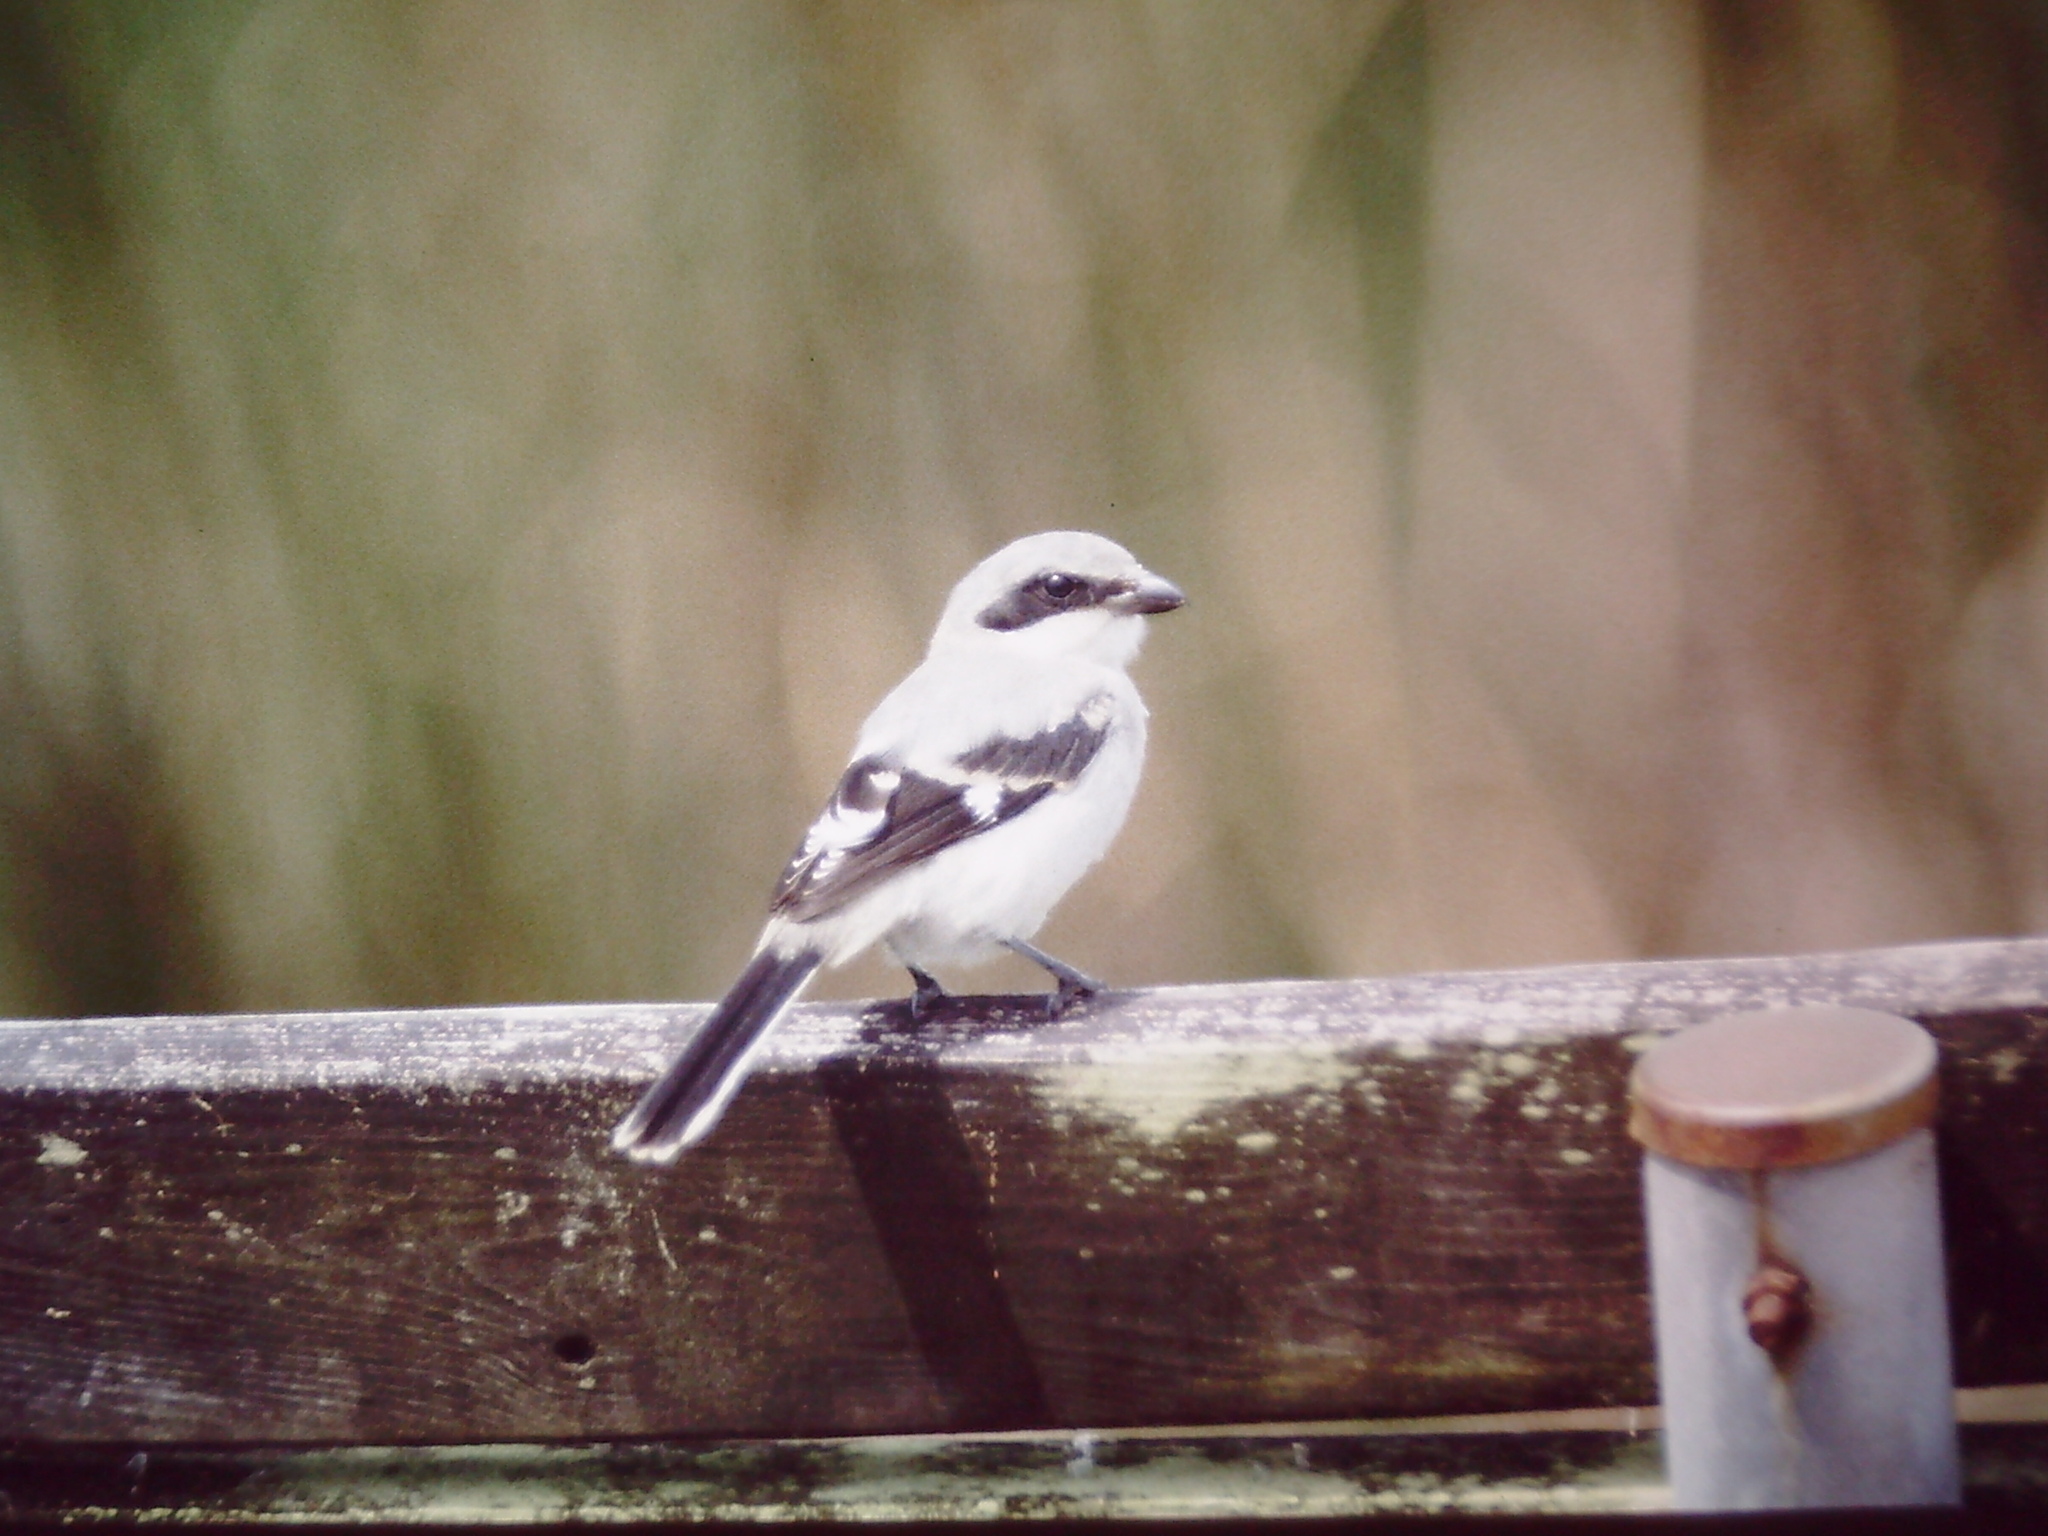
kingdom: Animalia
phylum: Chordata
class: Aves
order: Passeriformes
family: Laniidae
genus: Lanius
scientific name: Lanius ludovicianus
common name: Loggerhead shrike
